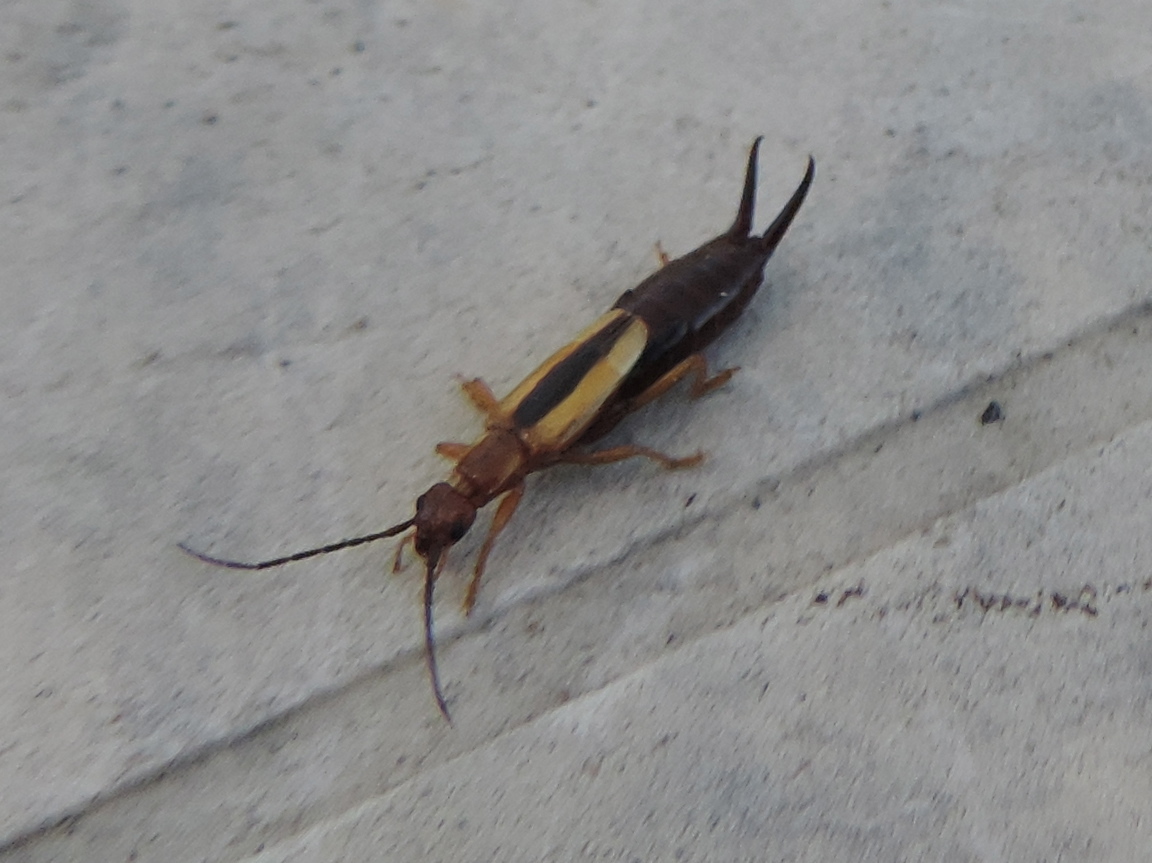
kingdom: Animalia
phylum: Arthropoda
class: Insecta
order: Dermaptera
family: Forficulidae
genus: Doru
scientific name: Doru
